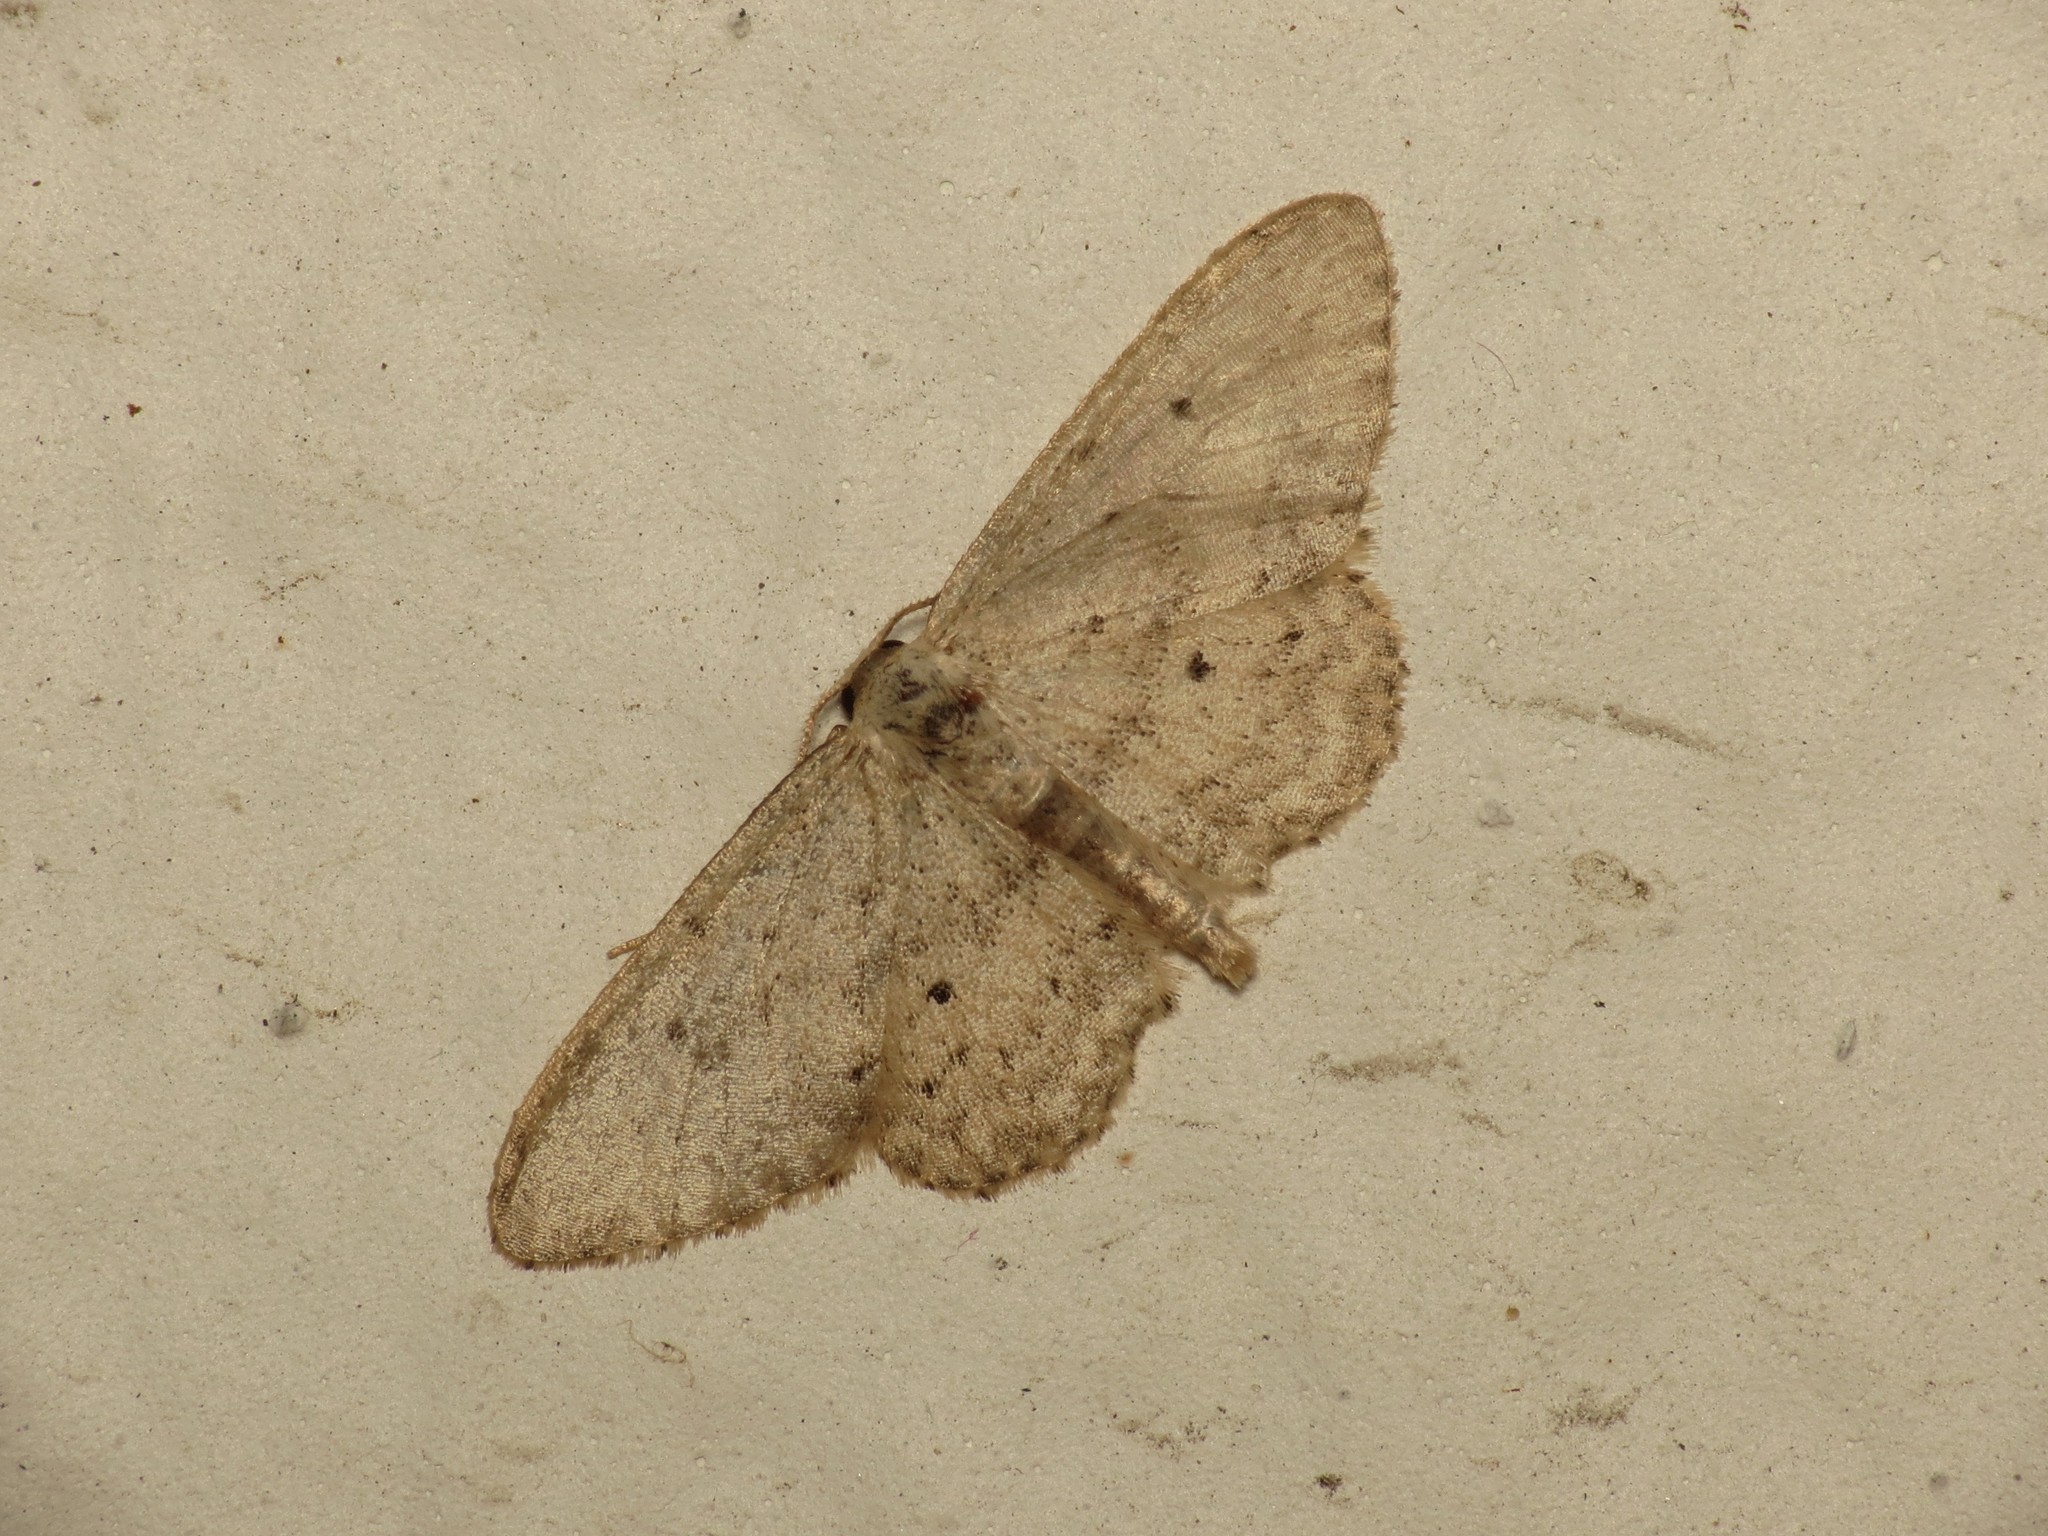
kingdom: Animalia
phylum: Arthropoda
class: Insecta
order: Lepidoptera
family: Geometridae
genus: Idaea
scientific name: Idaea seriata
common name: Small dusty wave
